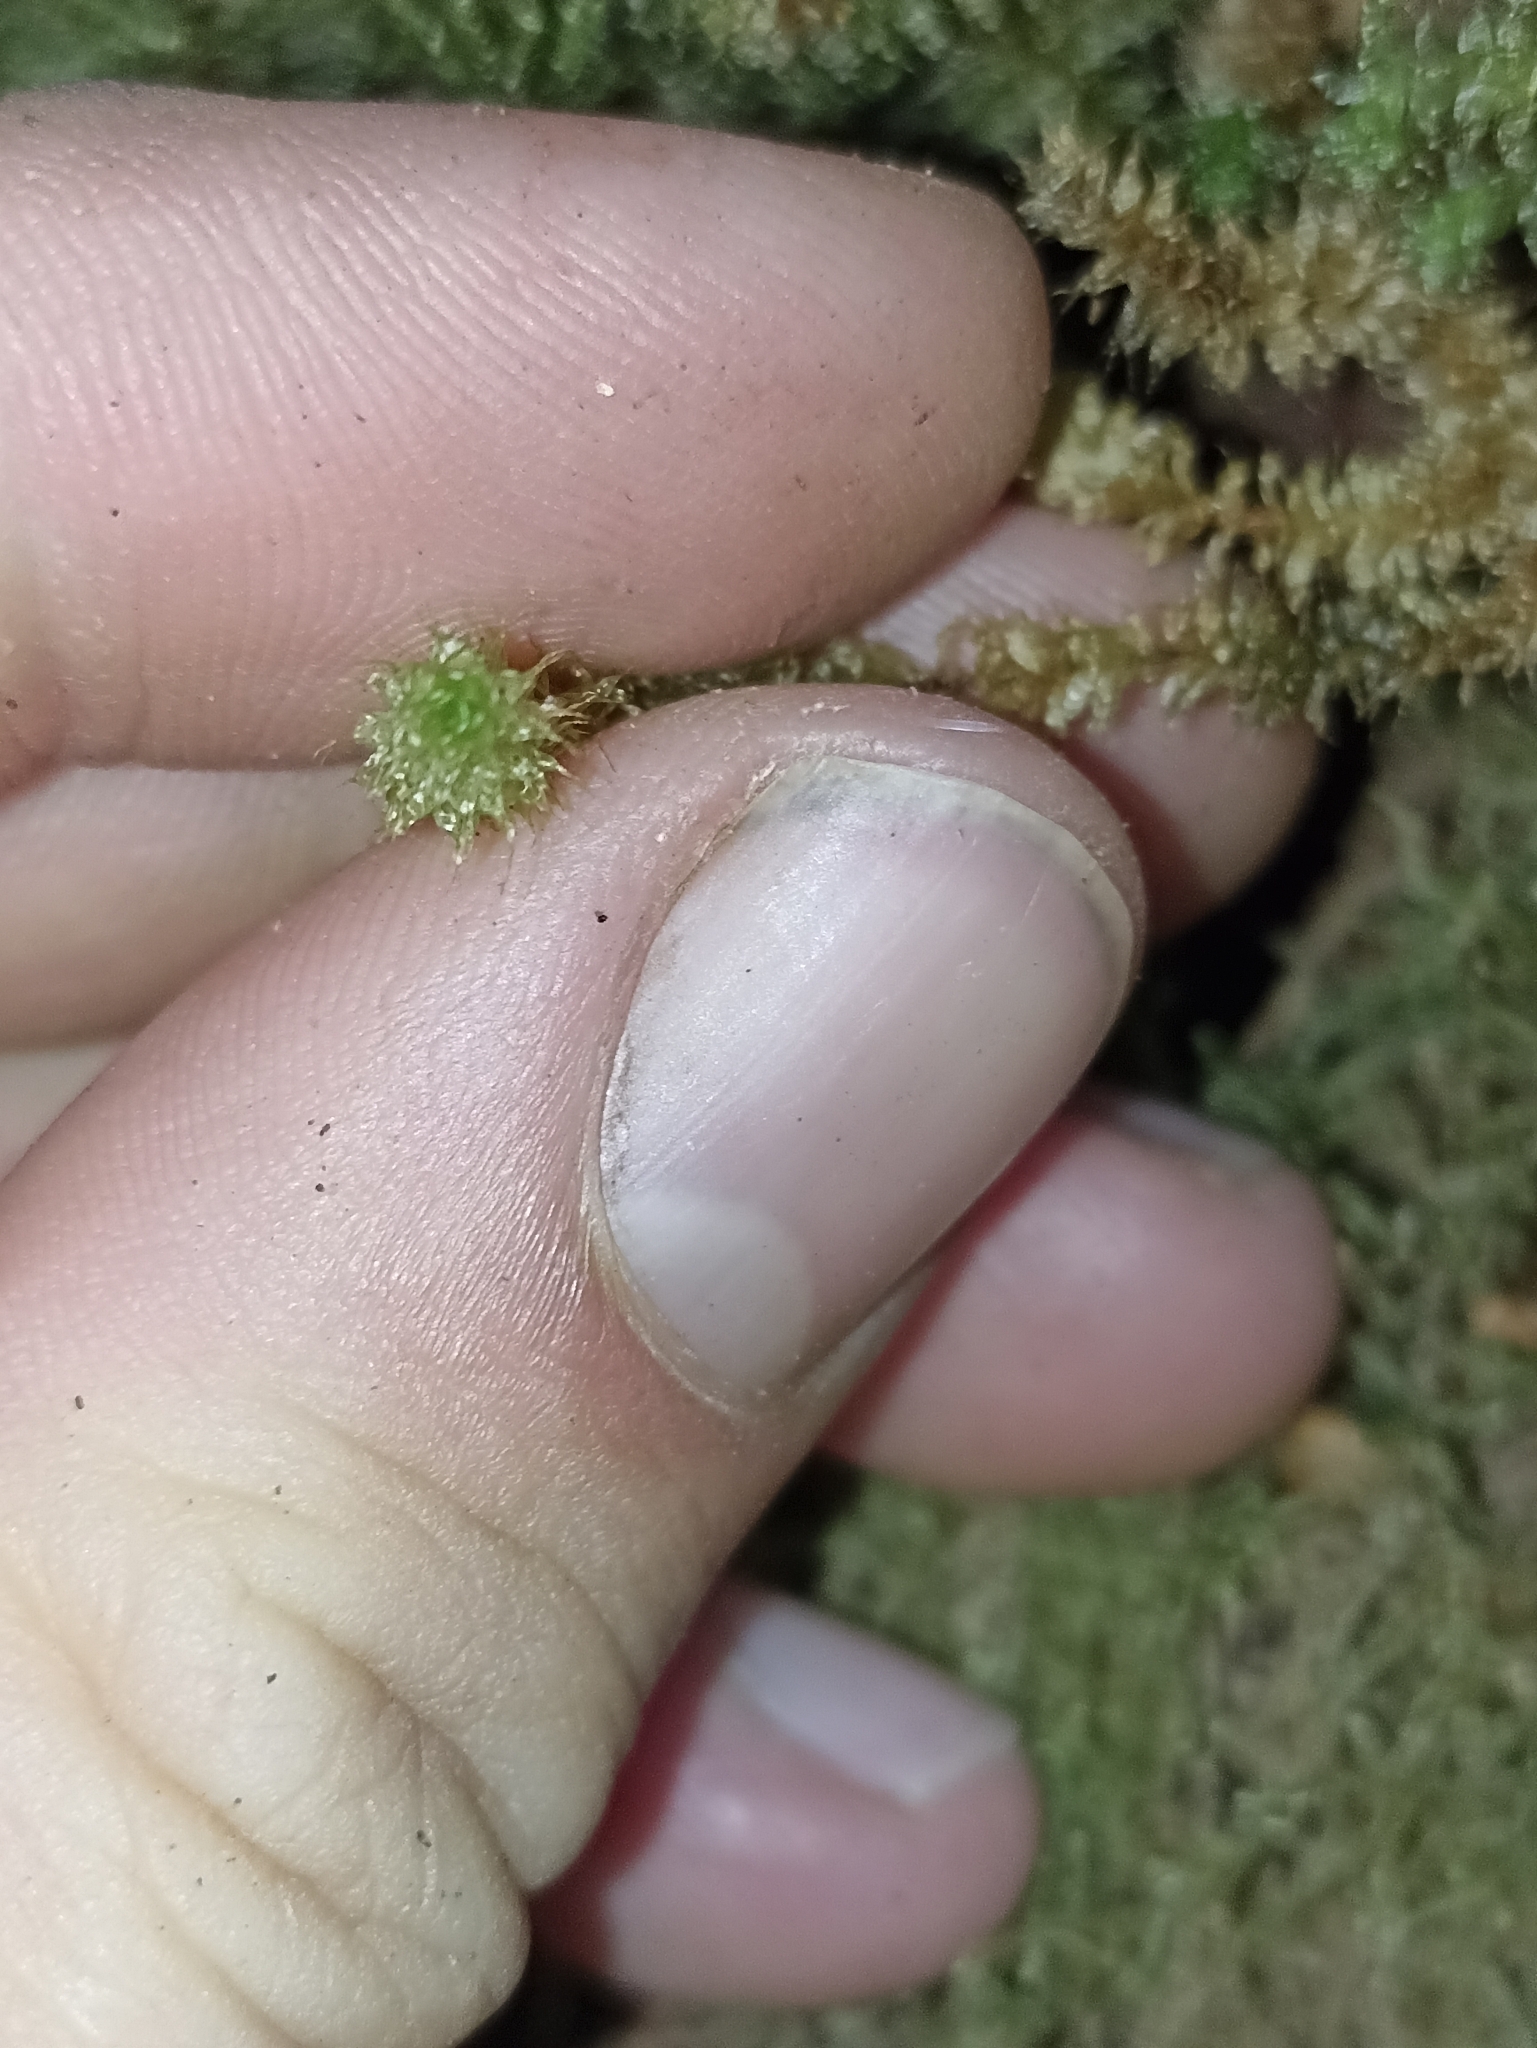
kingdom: Plantae
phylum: Bryophyta
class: Bryopsida
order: Ptychomniales
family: Ptychomniaceae
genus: Ptychomnion
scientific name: Ptychomnion aciculare
